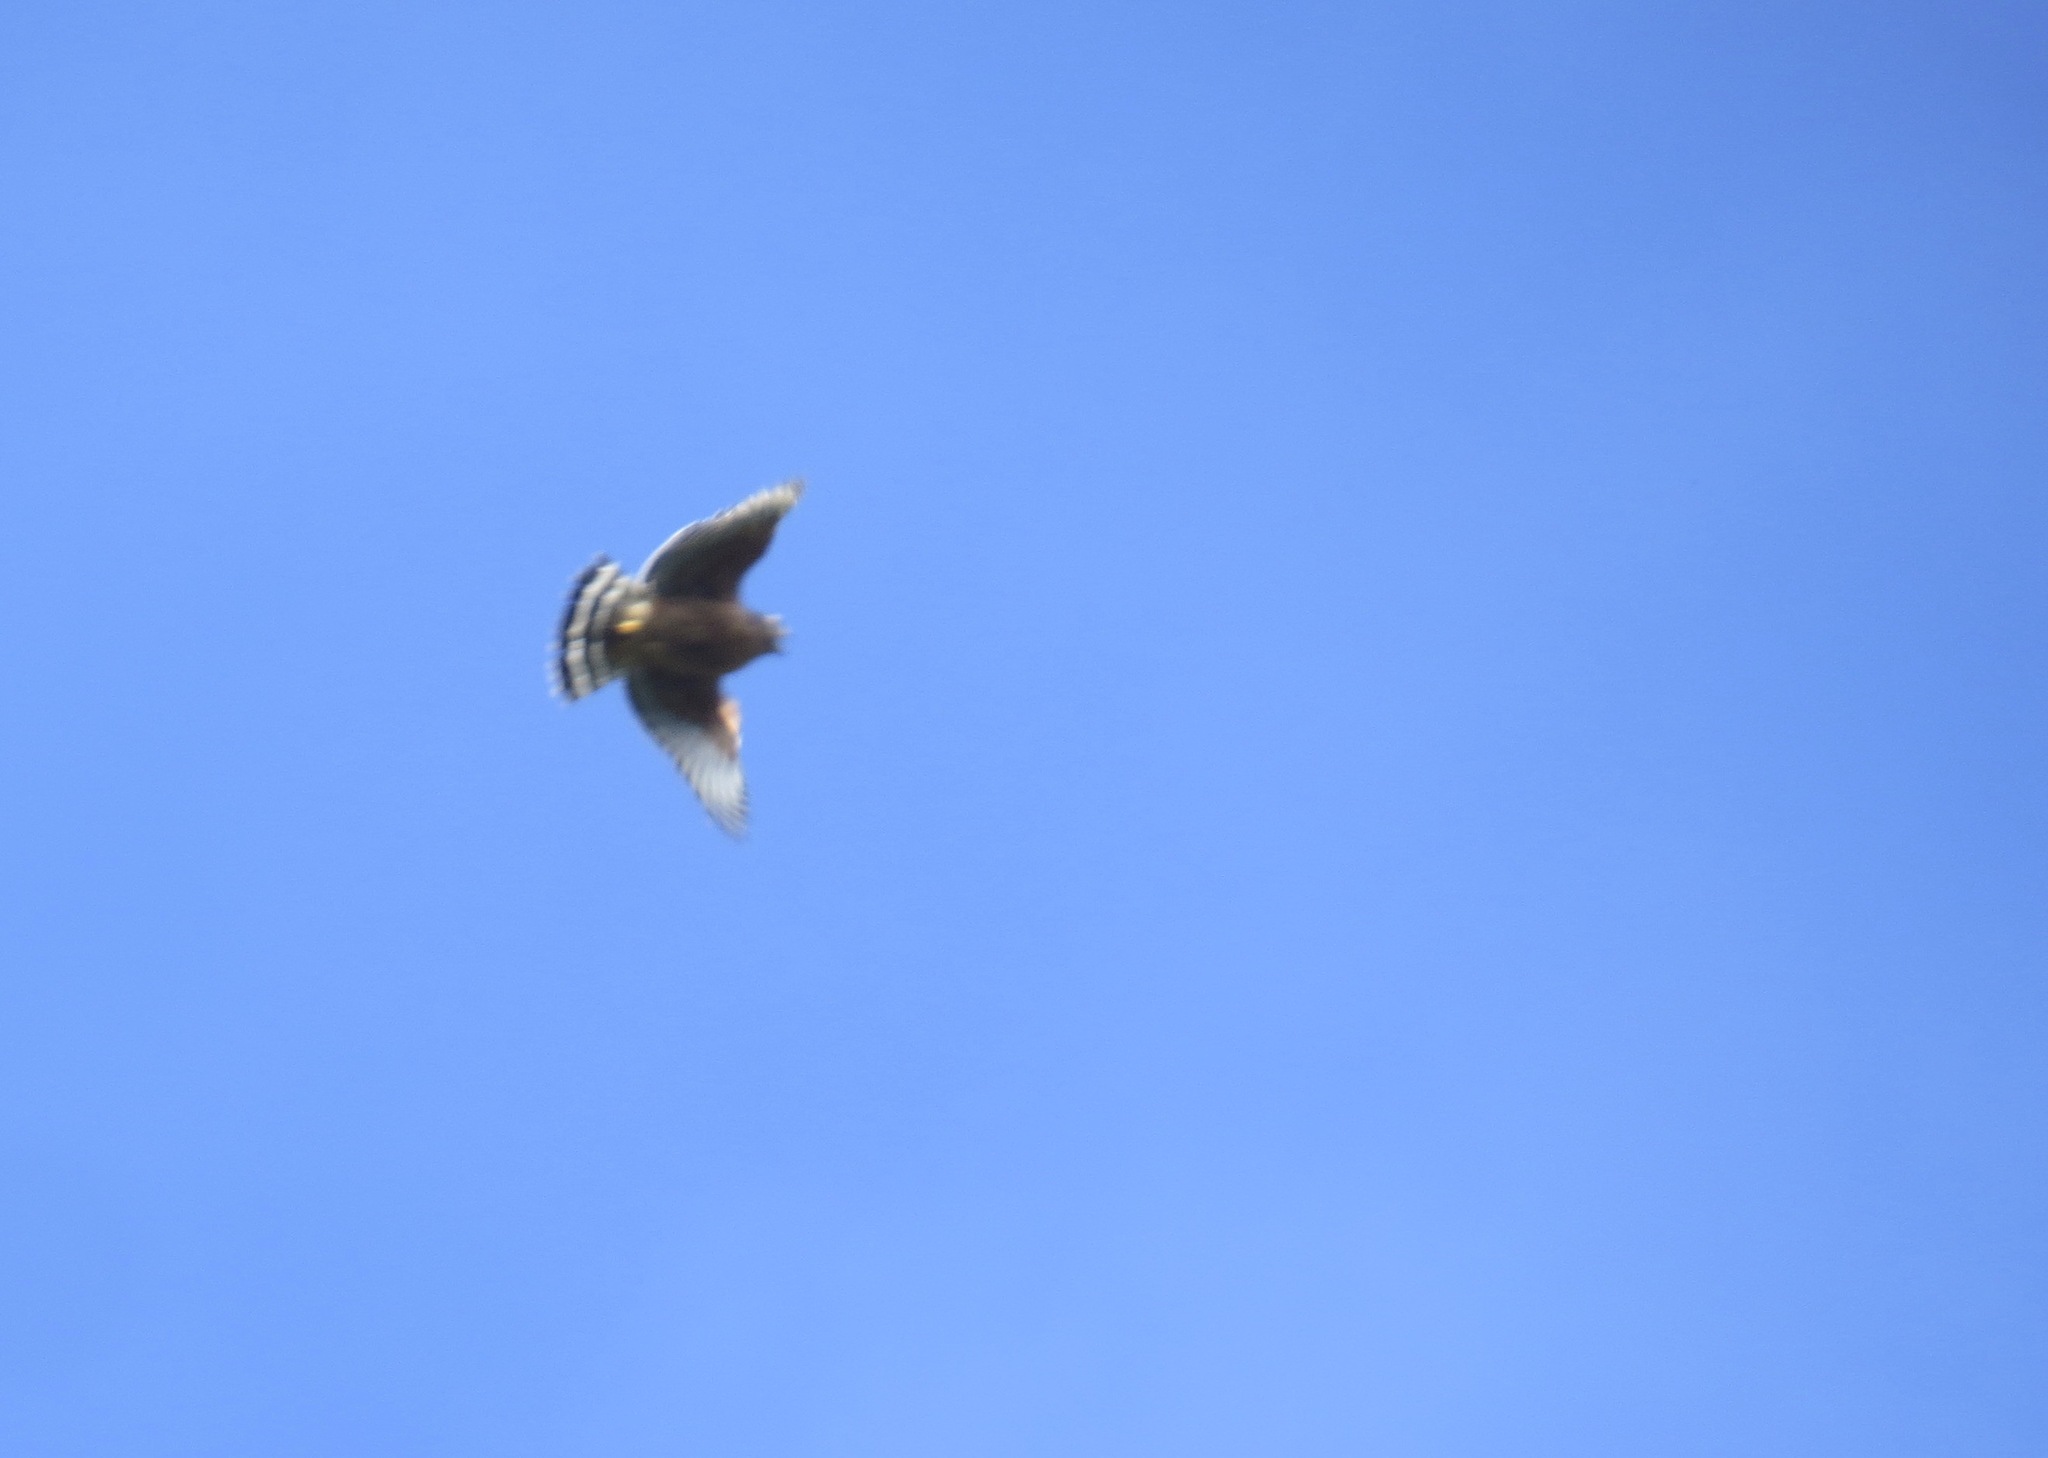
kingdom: Animalia
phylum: Chordata
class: Aves
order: Accipitriformes
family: Accipitridae
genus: Buteo
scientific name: Buteo lineatus
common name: Red-shouldered hawk
